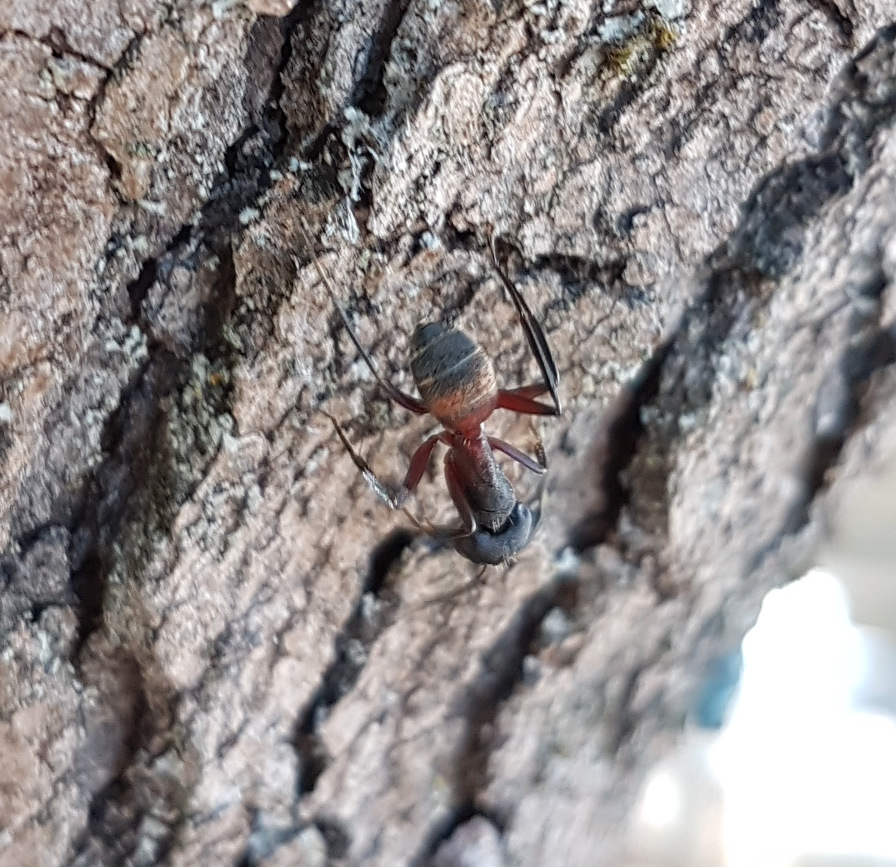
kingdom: Animalia
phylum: Arthropoda
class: Insecta
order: Hymenoptera
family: Formicidae
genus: Camponotus
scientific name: Camponotus cruentatus
